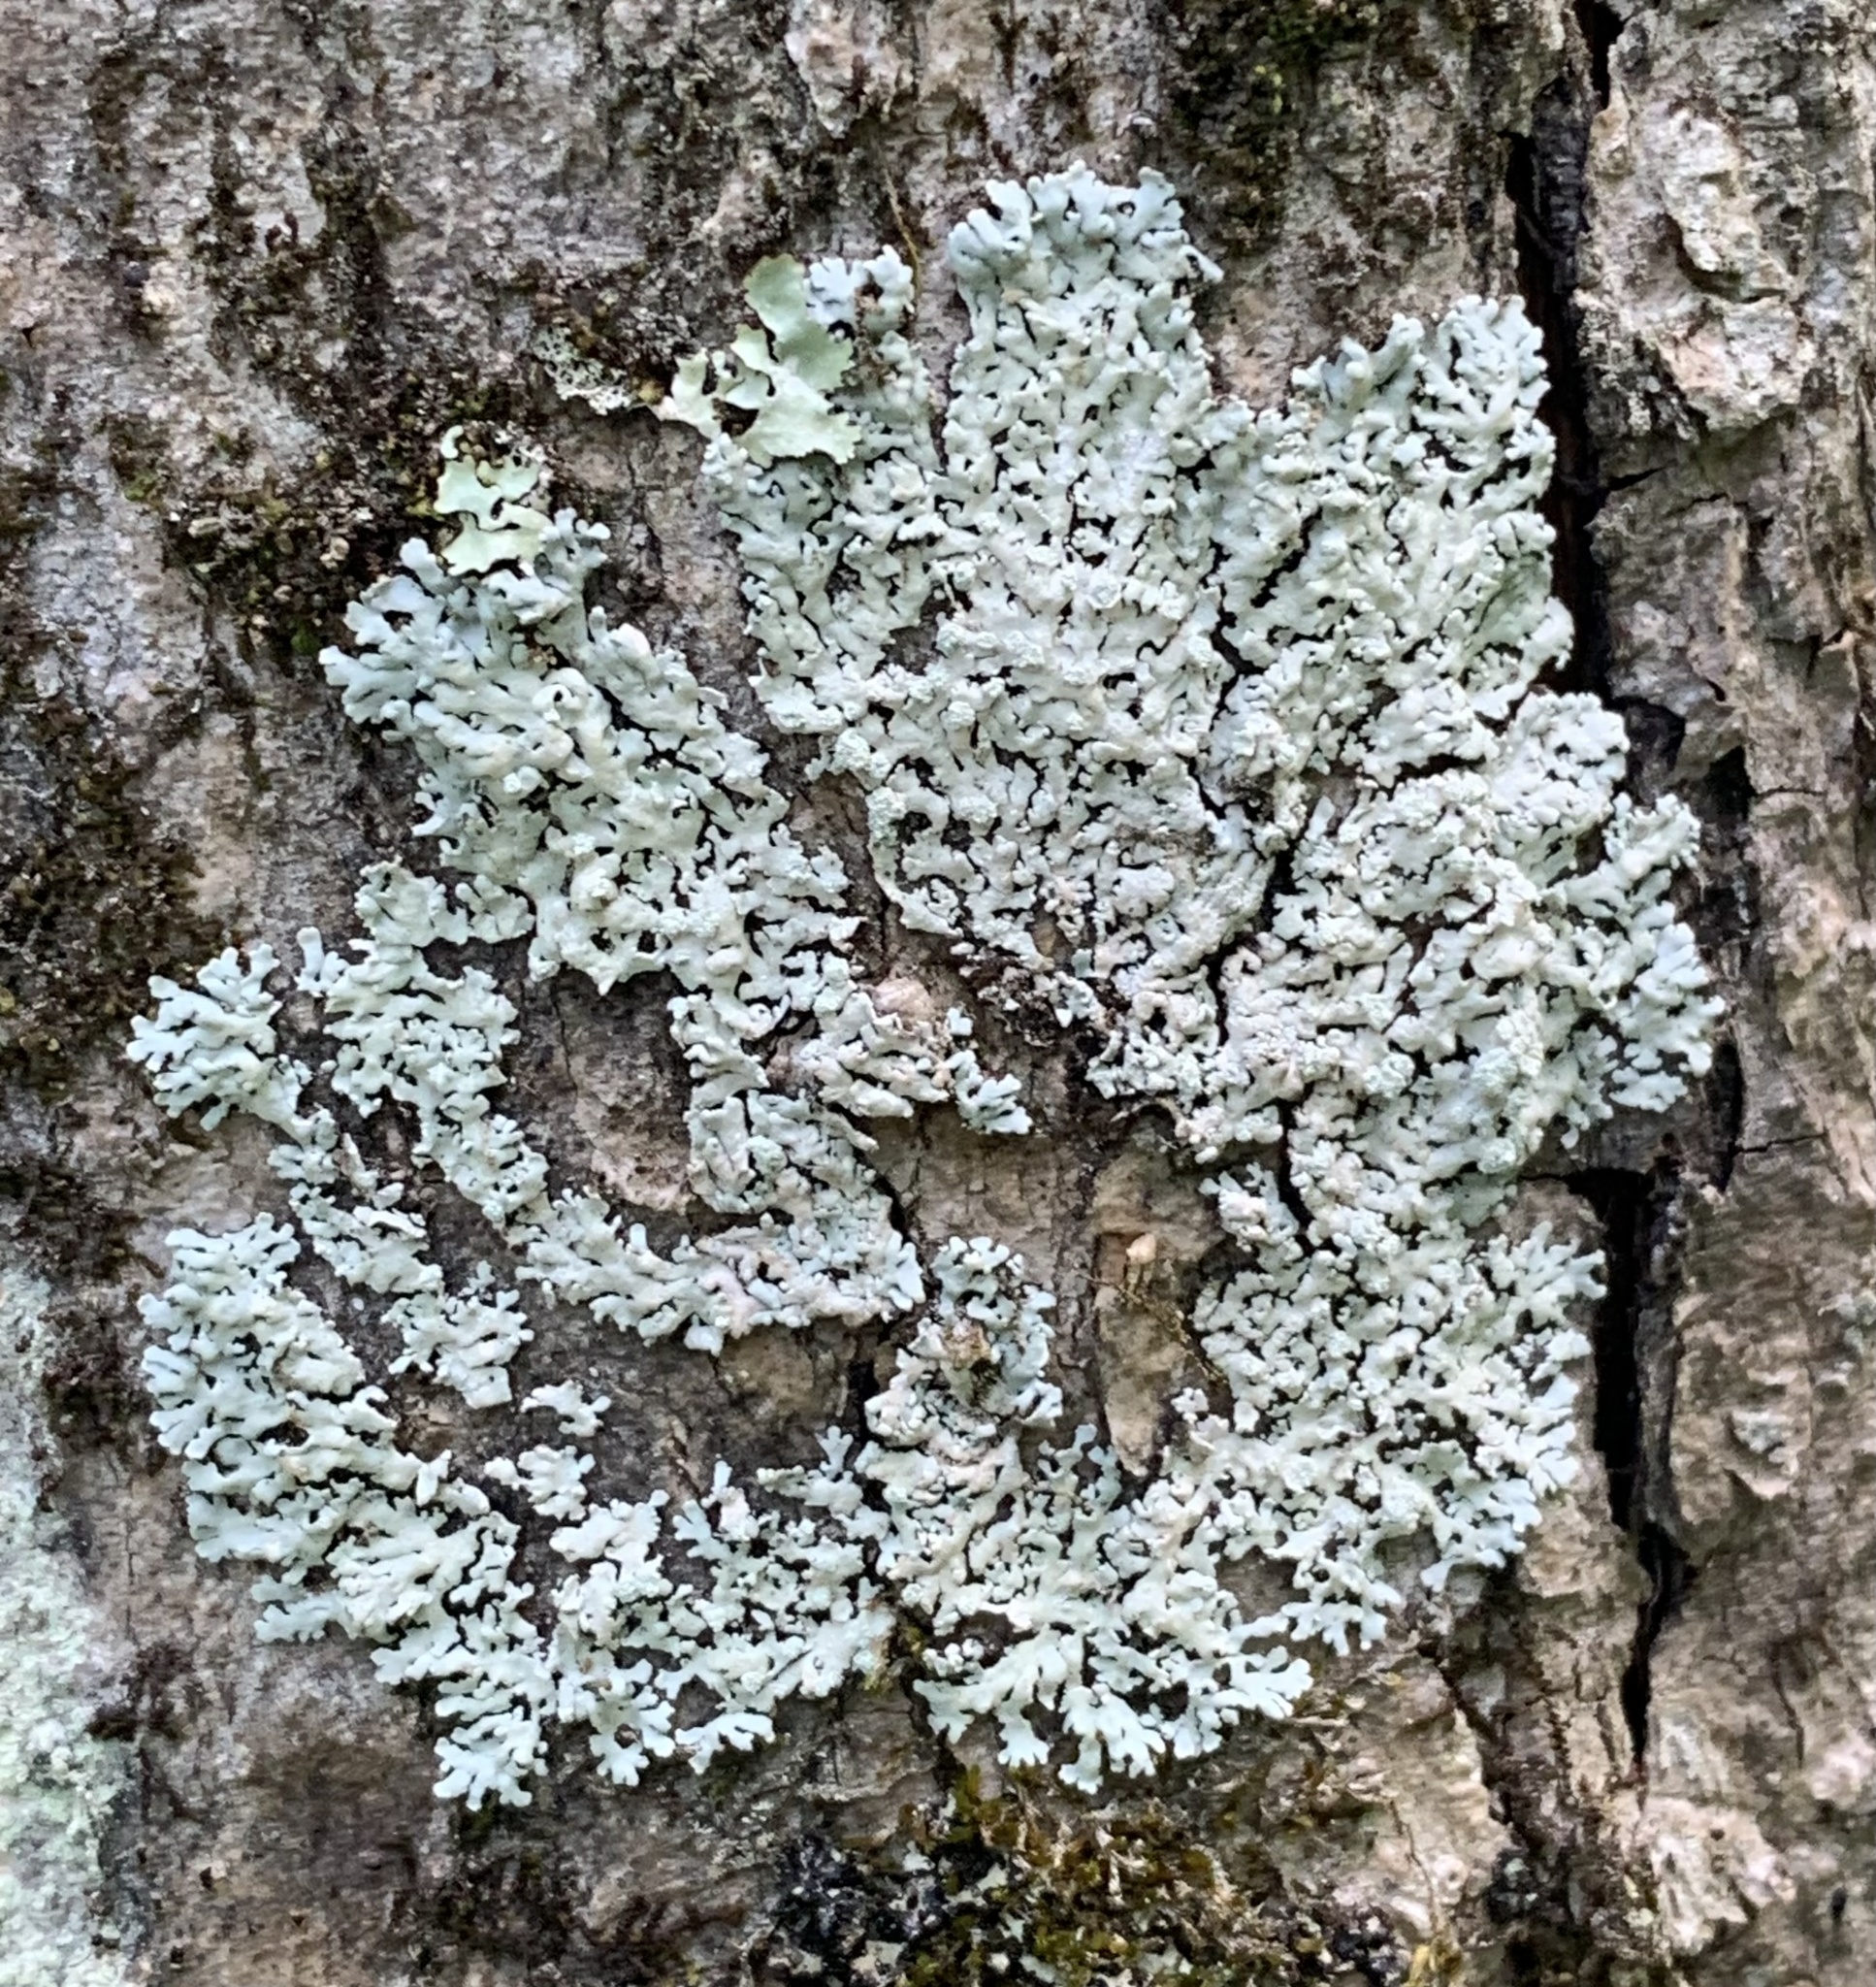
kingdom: Fungi
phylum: Ascomycota
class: Lecanoromycetes
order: Caliciales
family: Physciaceae
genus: Physcia
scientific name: Physcia americana
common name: American rosette lichen
